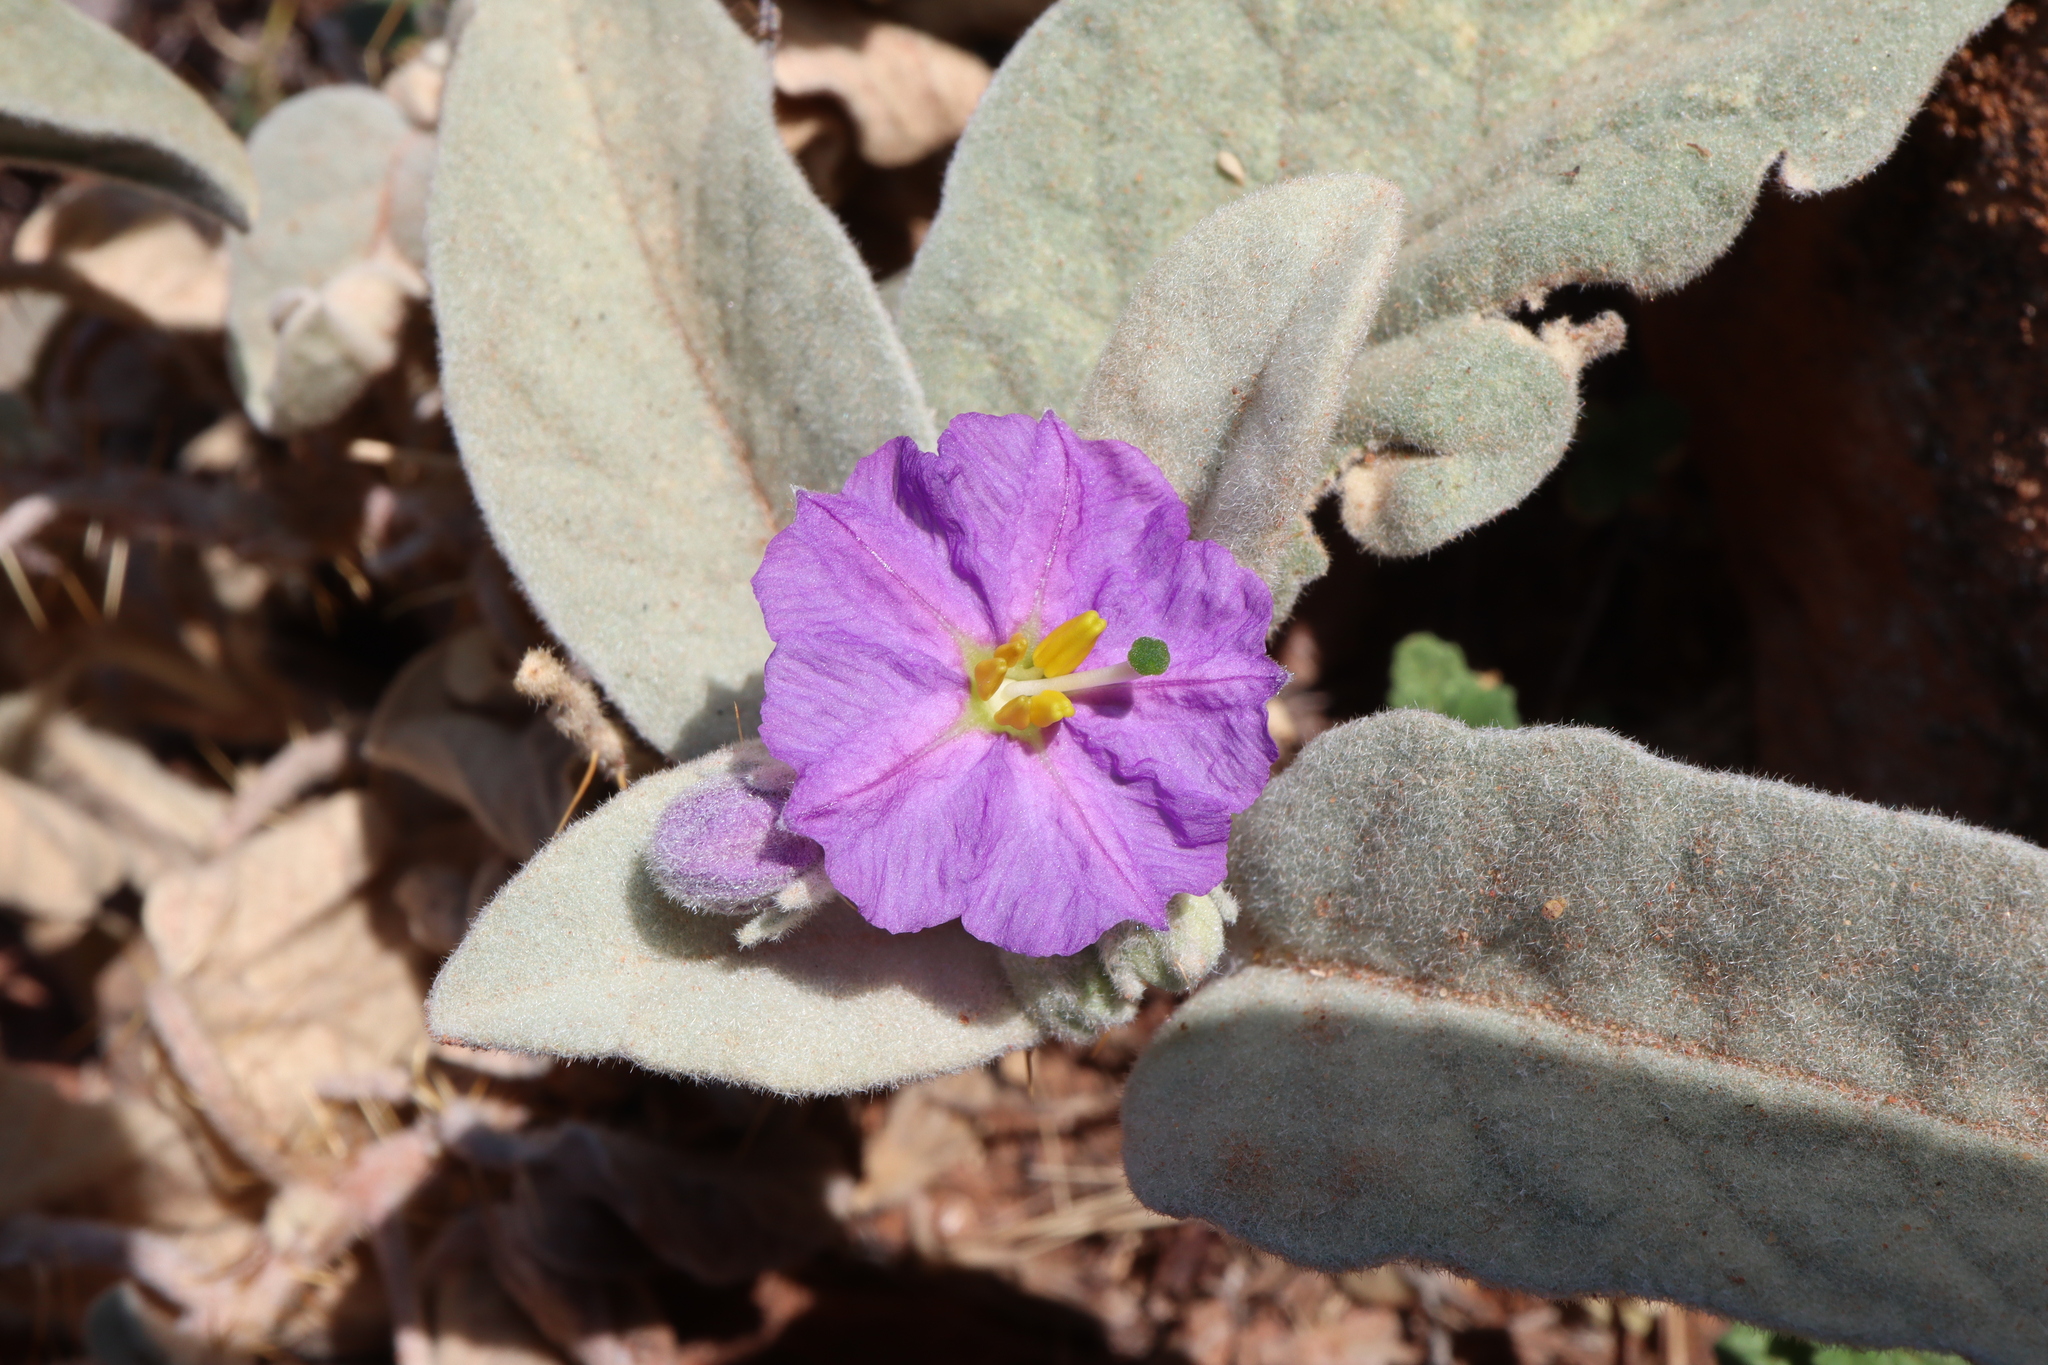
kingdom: Plantae
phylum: Tracheophyta
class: Magnoliopsida
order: Solanales
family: Solanaceae
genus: Solanum
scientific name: Solanum ellipticum
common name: Potato-bush
